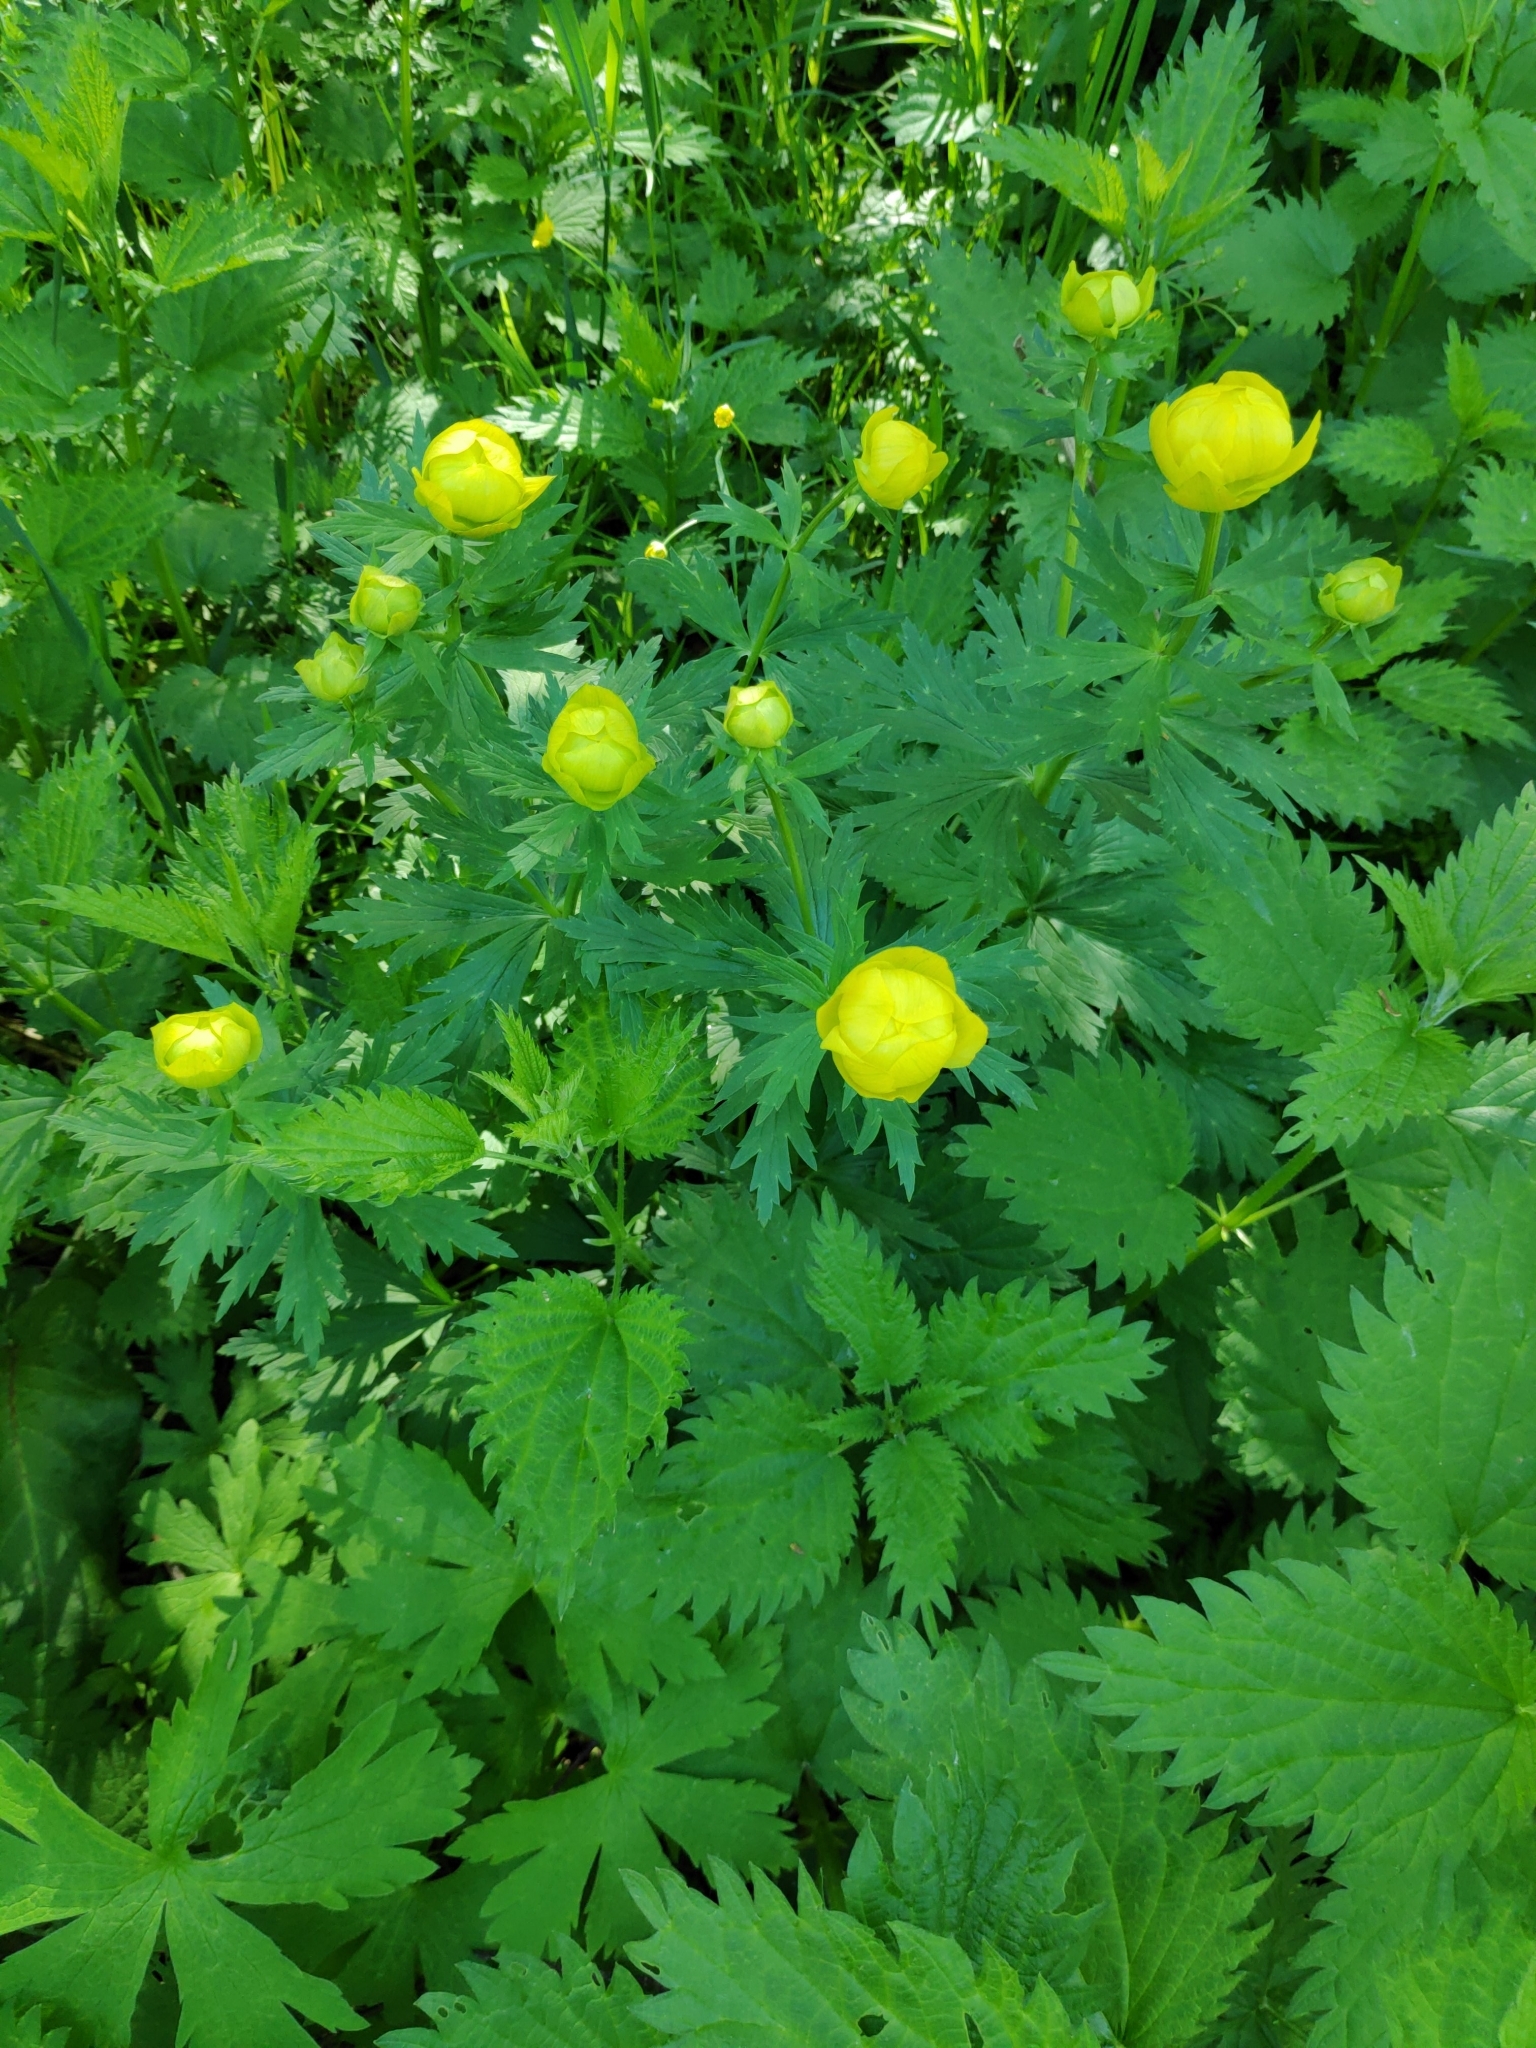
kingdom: Plantae
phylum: Tracheophyta
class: Magnoliopsida
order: Ranunculales
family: Ranunculaceae
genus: Trollius
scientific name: Trollius europaeus
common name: European globeflower
